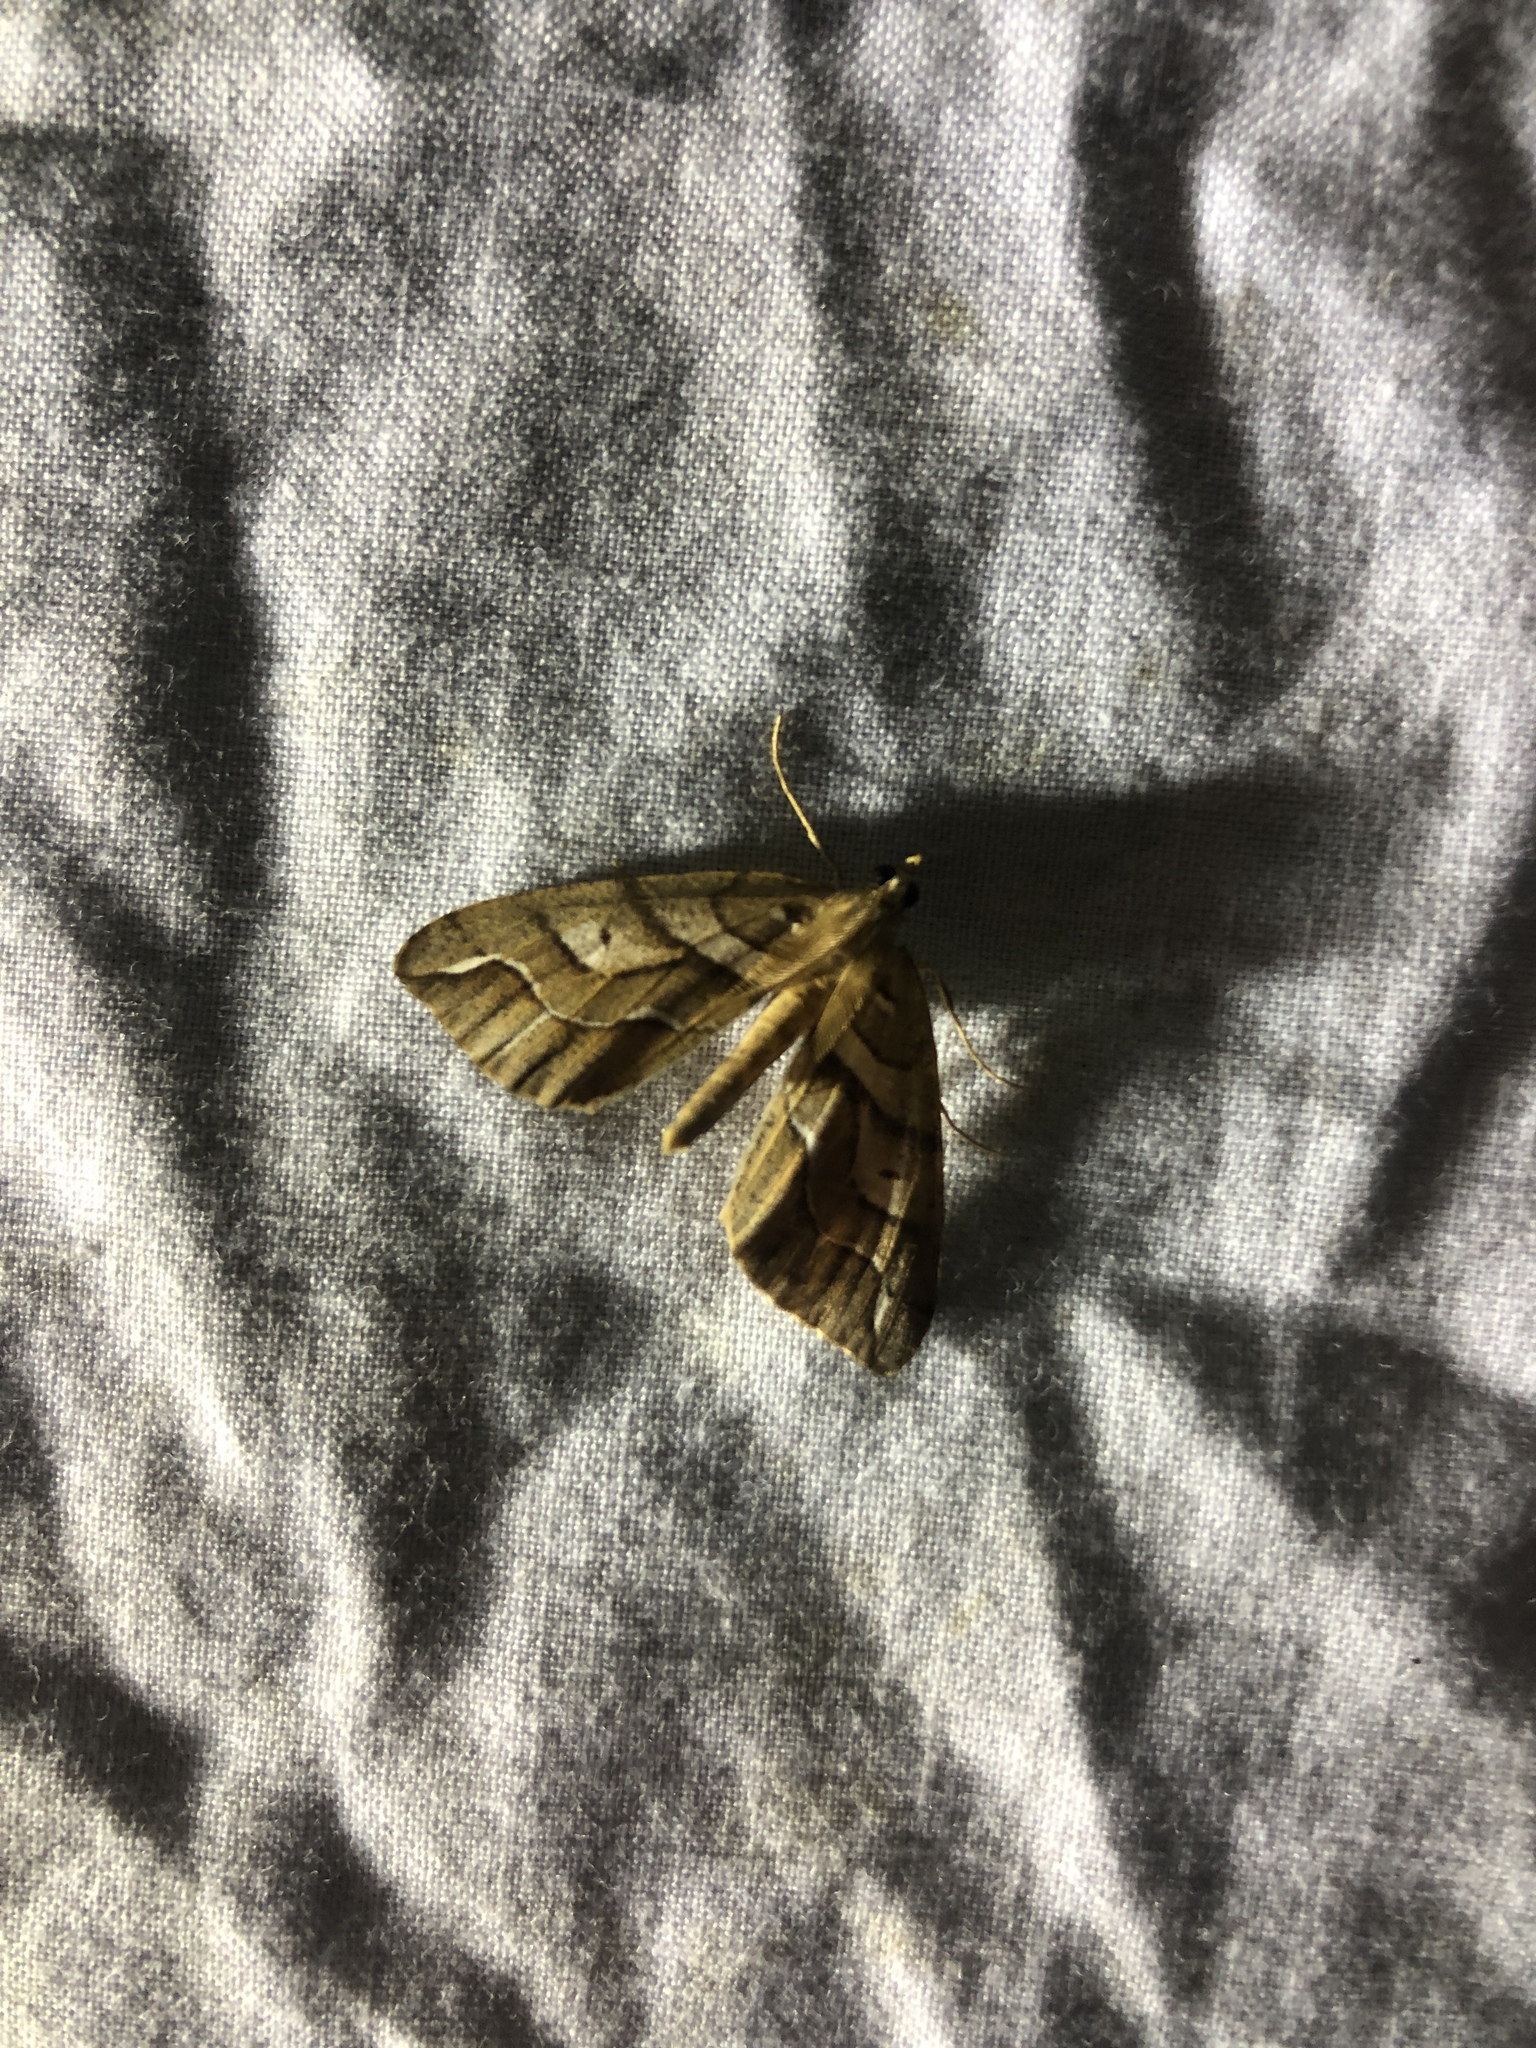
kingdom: Animalia
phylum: Arthropoda
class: Insecta
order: Lepidoptera
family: Geometridae
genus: Chalastra
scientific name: Chalastra aristarcha
